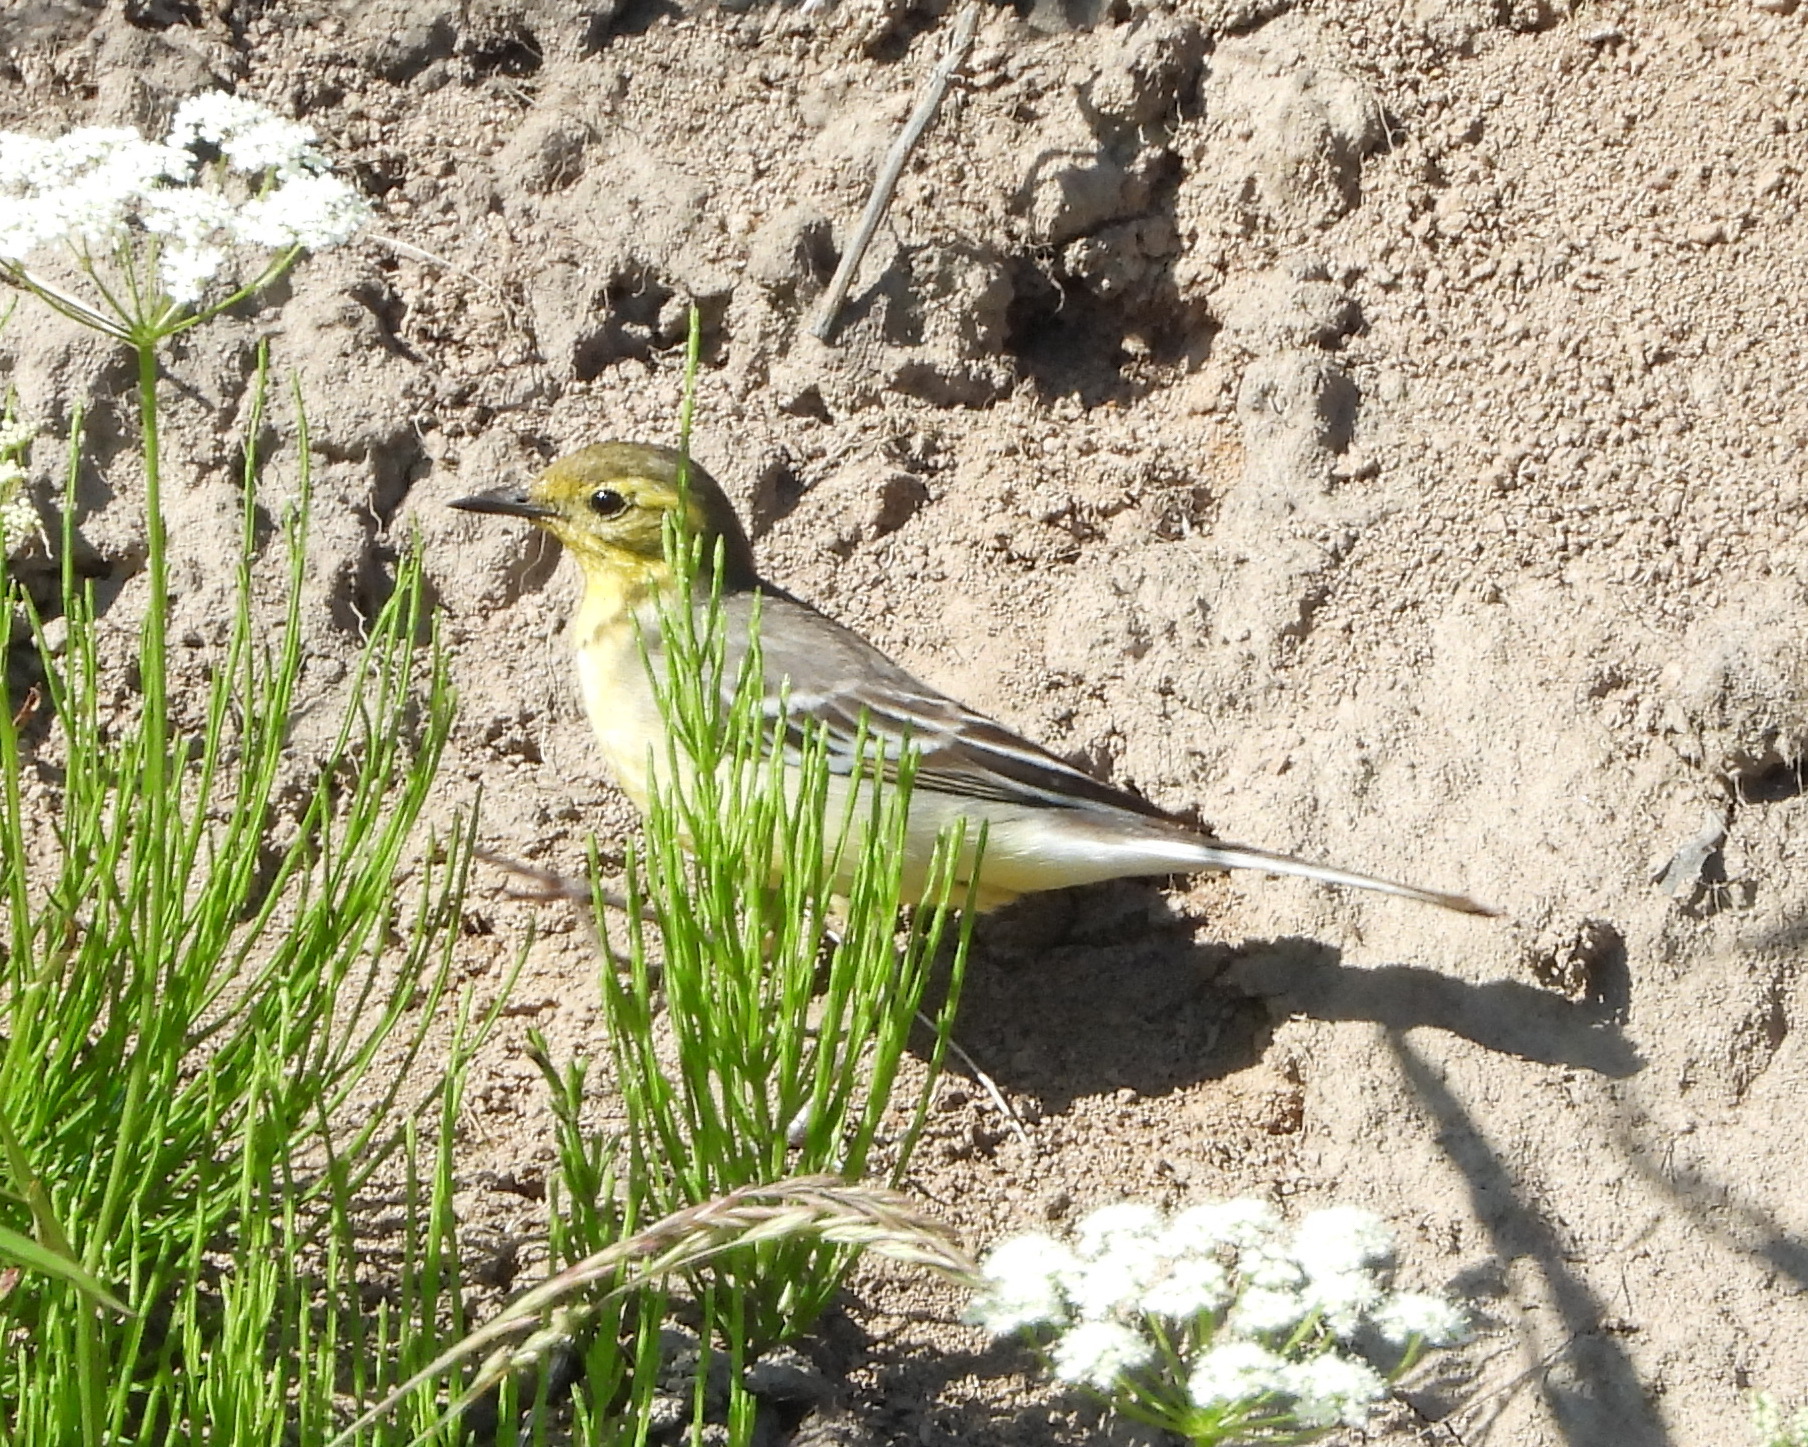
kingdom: Animalia
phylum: Chordata
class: Aves
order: Passeriformes
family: Motacillidae
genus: Motacilla
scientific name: Motacilla citreola
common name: Citrine wagtail
